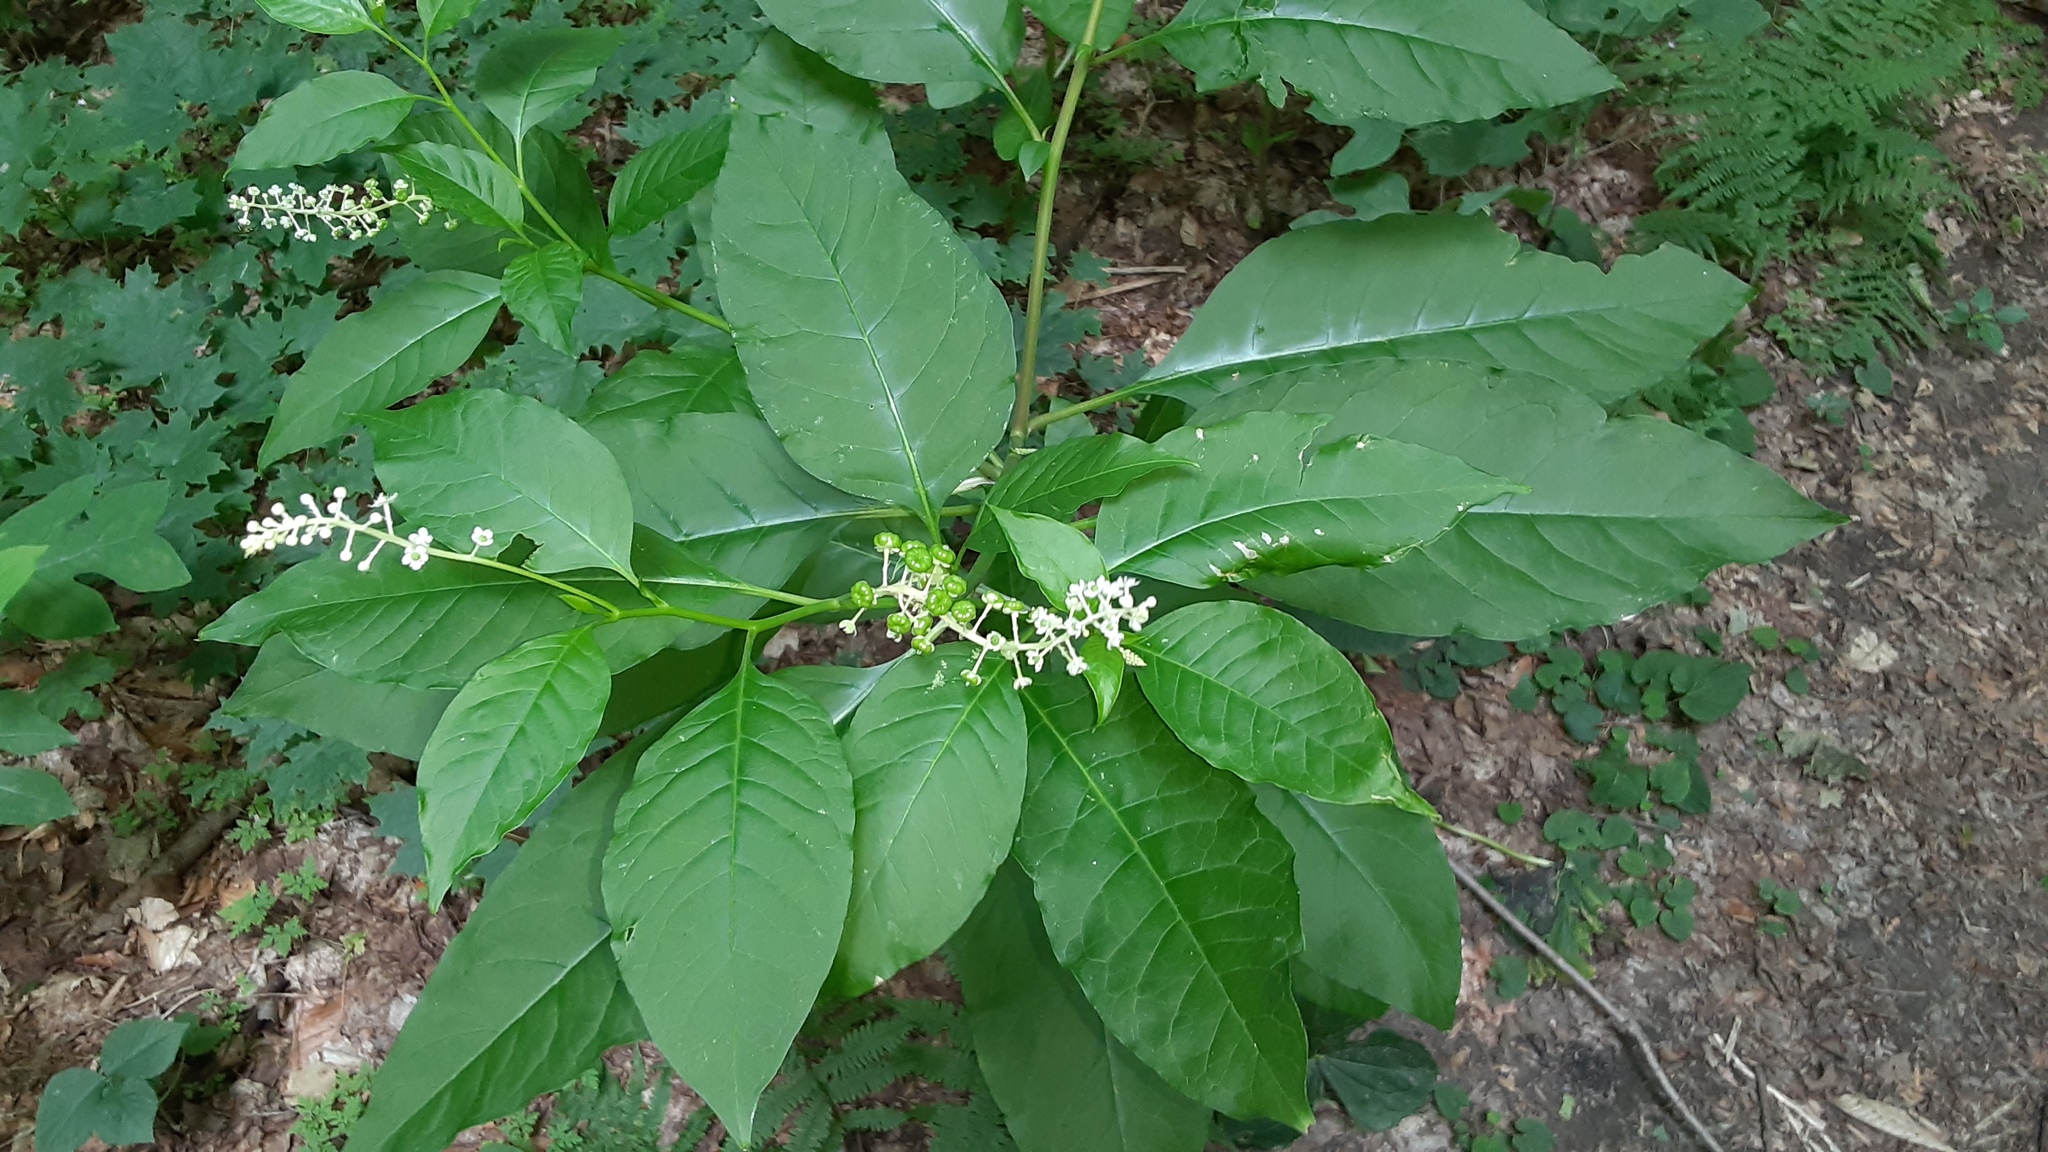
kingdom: Plantae
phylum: Tracheophyta
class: Magnoliopsida
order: Caryophyllales
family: Phytolaccaceae
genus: Phytolacca
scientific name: Phytolacca americana
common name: American pokeweed
